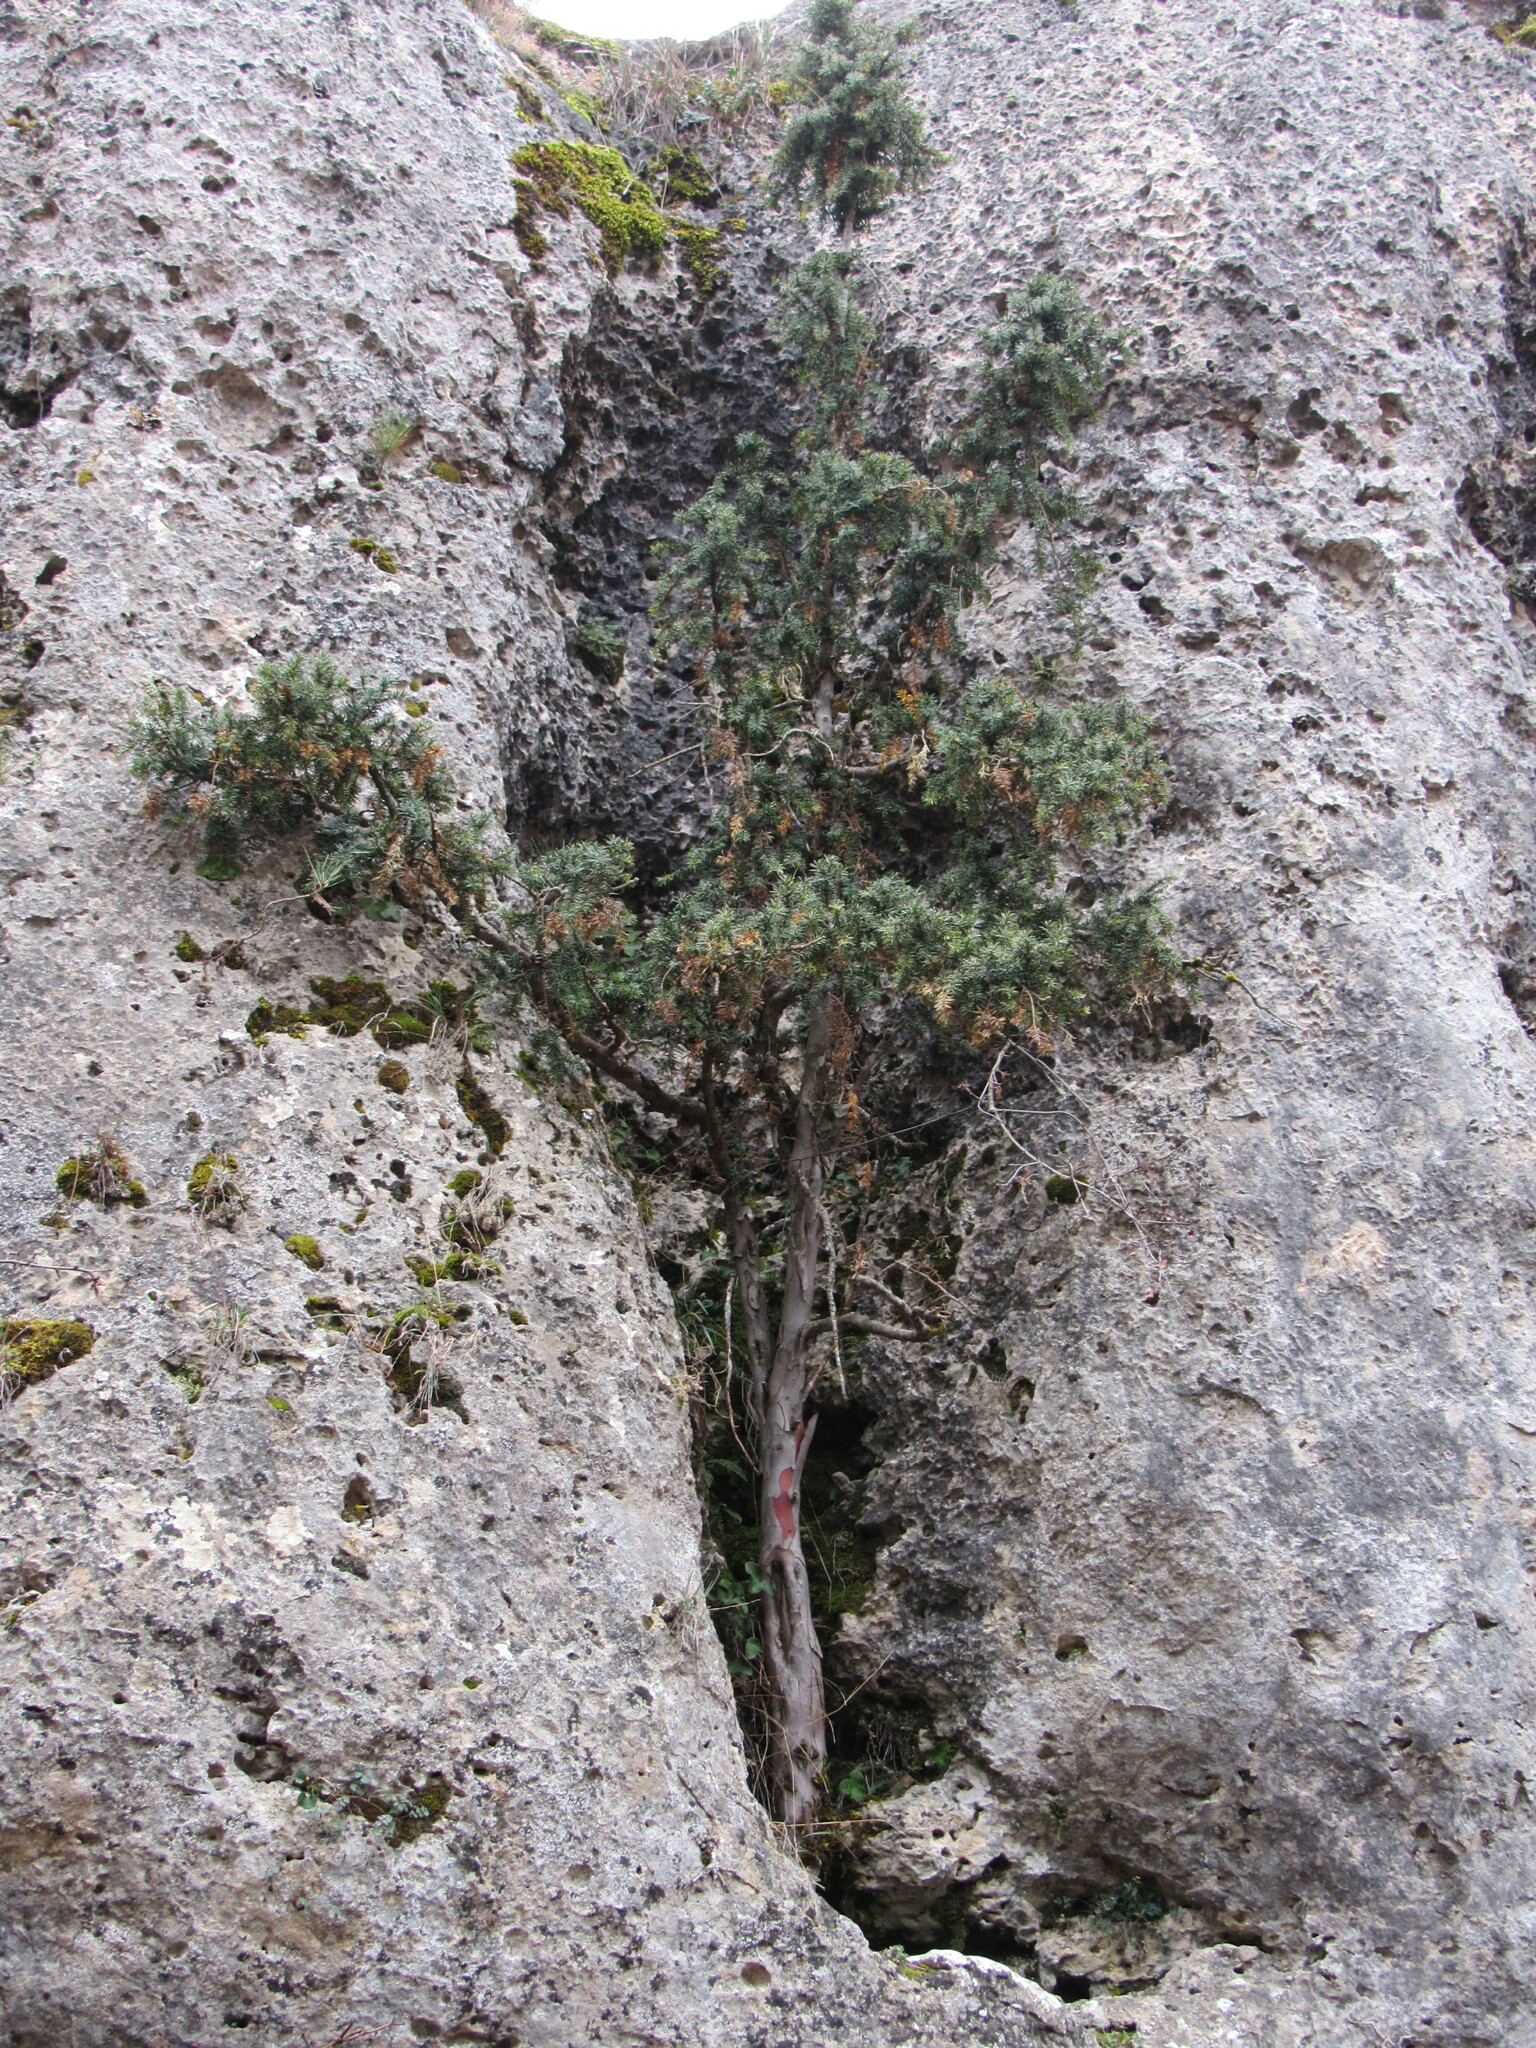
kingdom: Plantae
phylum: Tracheophyta
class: Pinopsida
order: Pinales
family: Taxaceae
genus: Taxus
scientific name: Taxus baccata
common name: Yew
